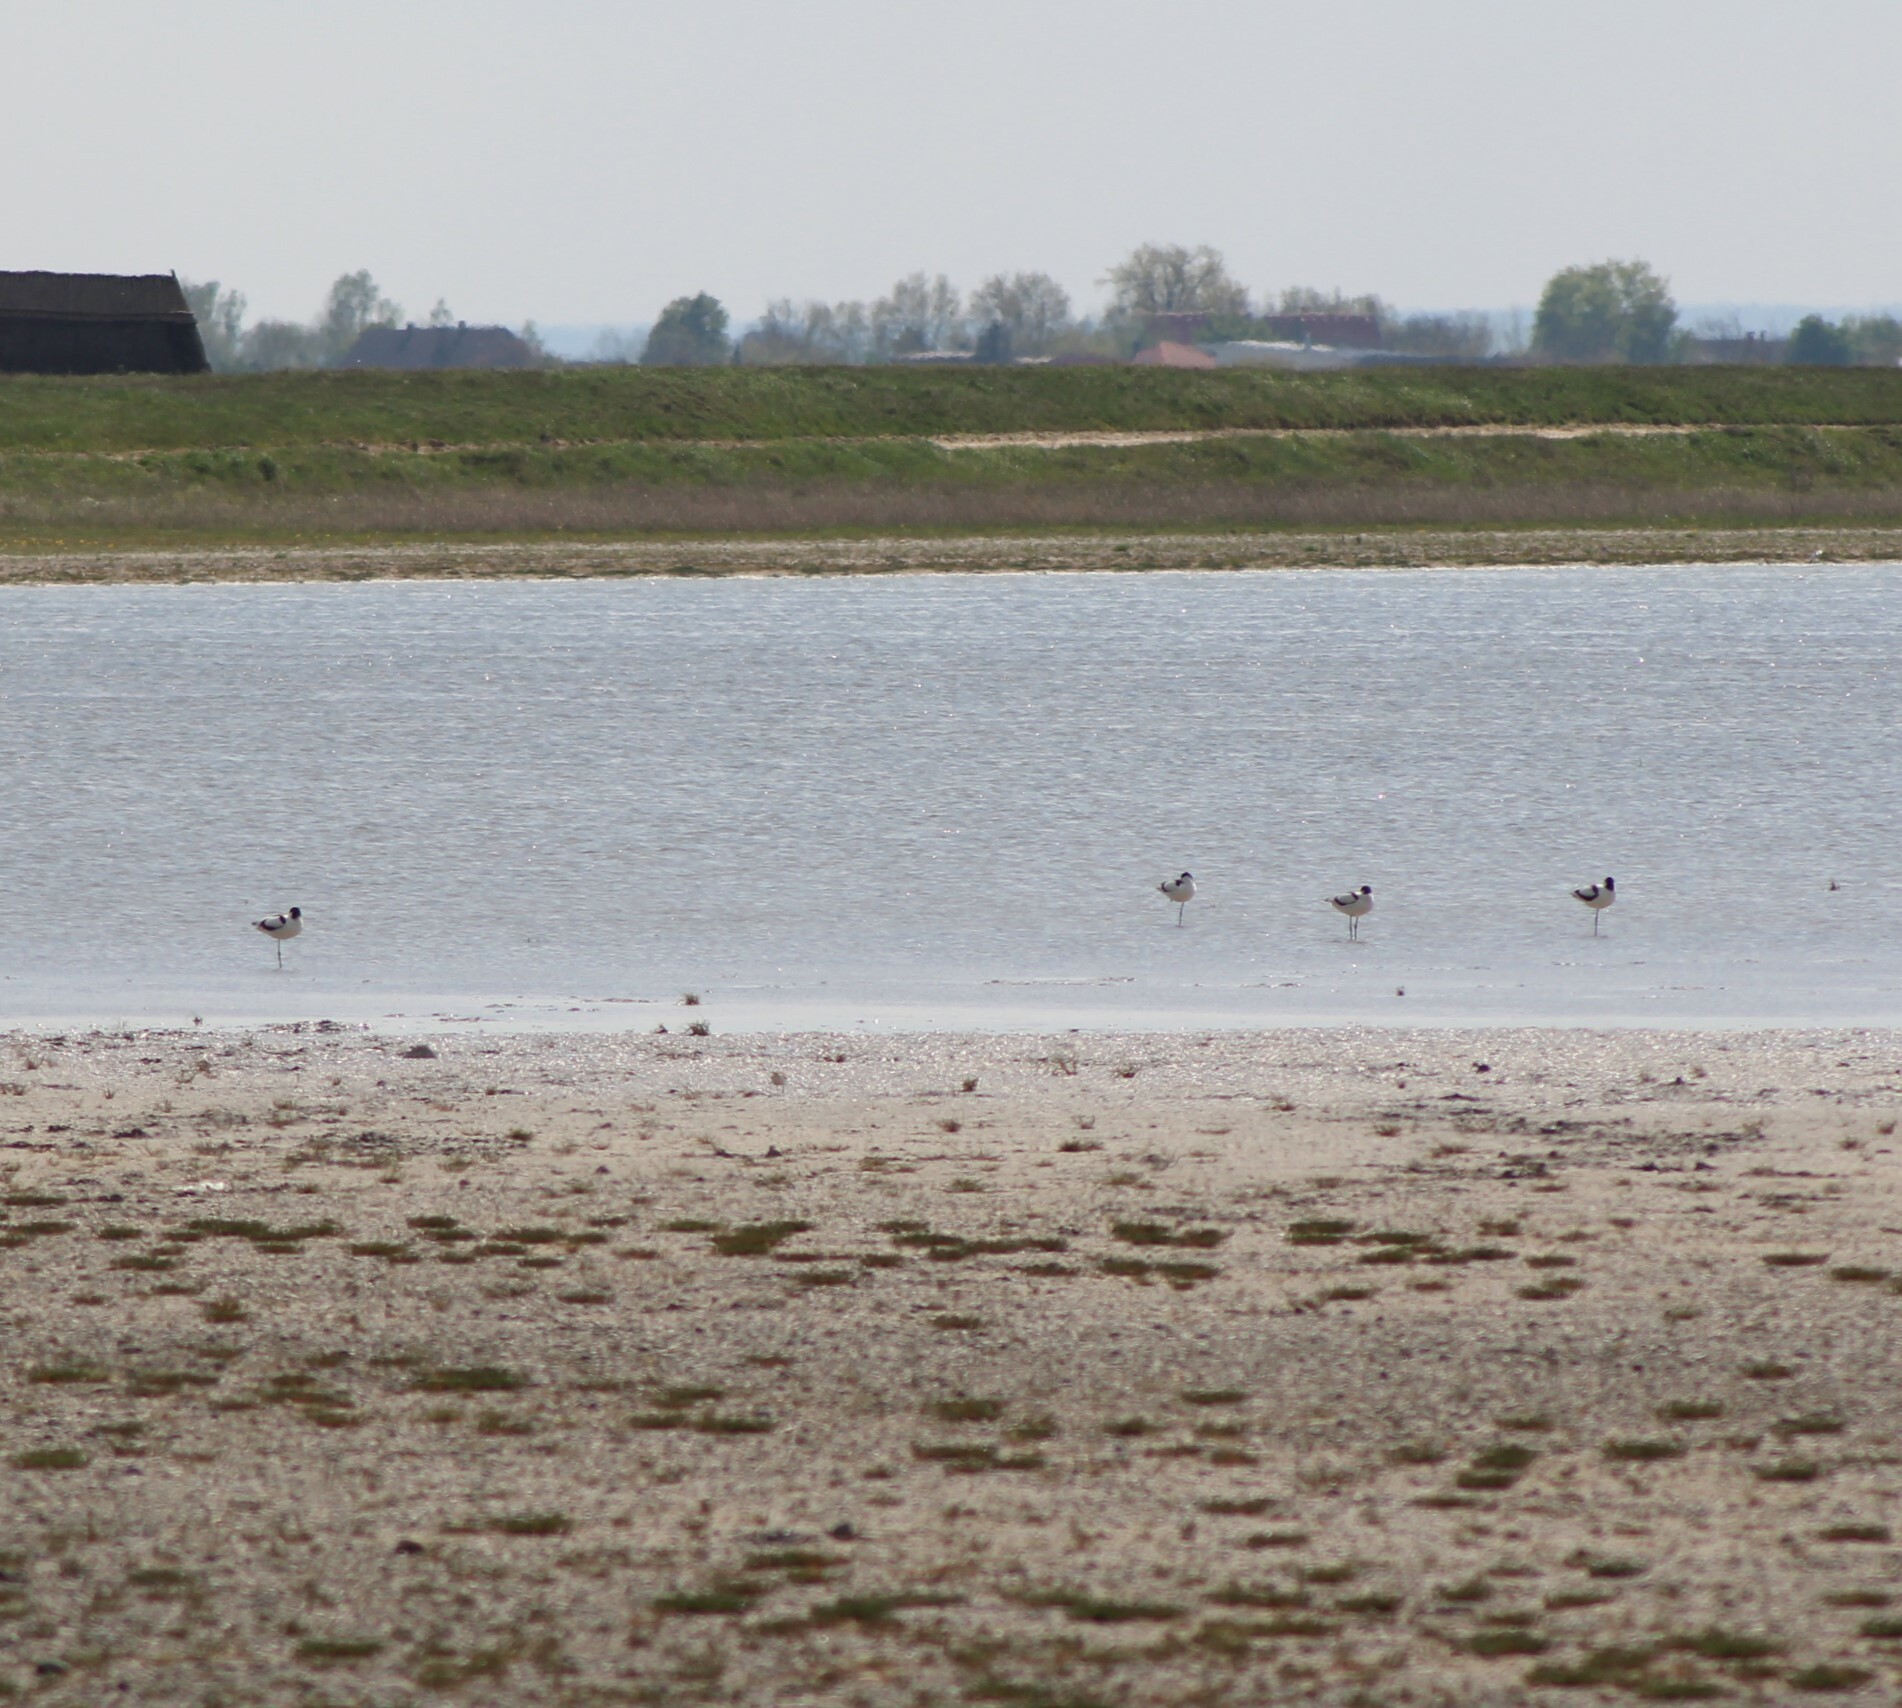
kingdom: Animalia
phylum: Chordata
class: Aves
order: Charadriiformes
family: Recurvirostridae
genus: Recurvirostra
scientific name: Recurvirostra avosetta
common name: Pied avocet
